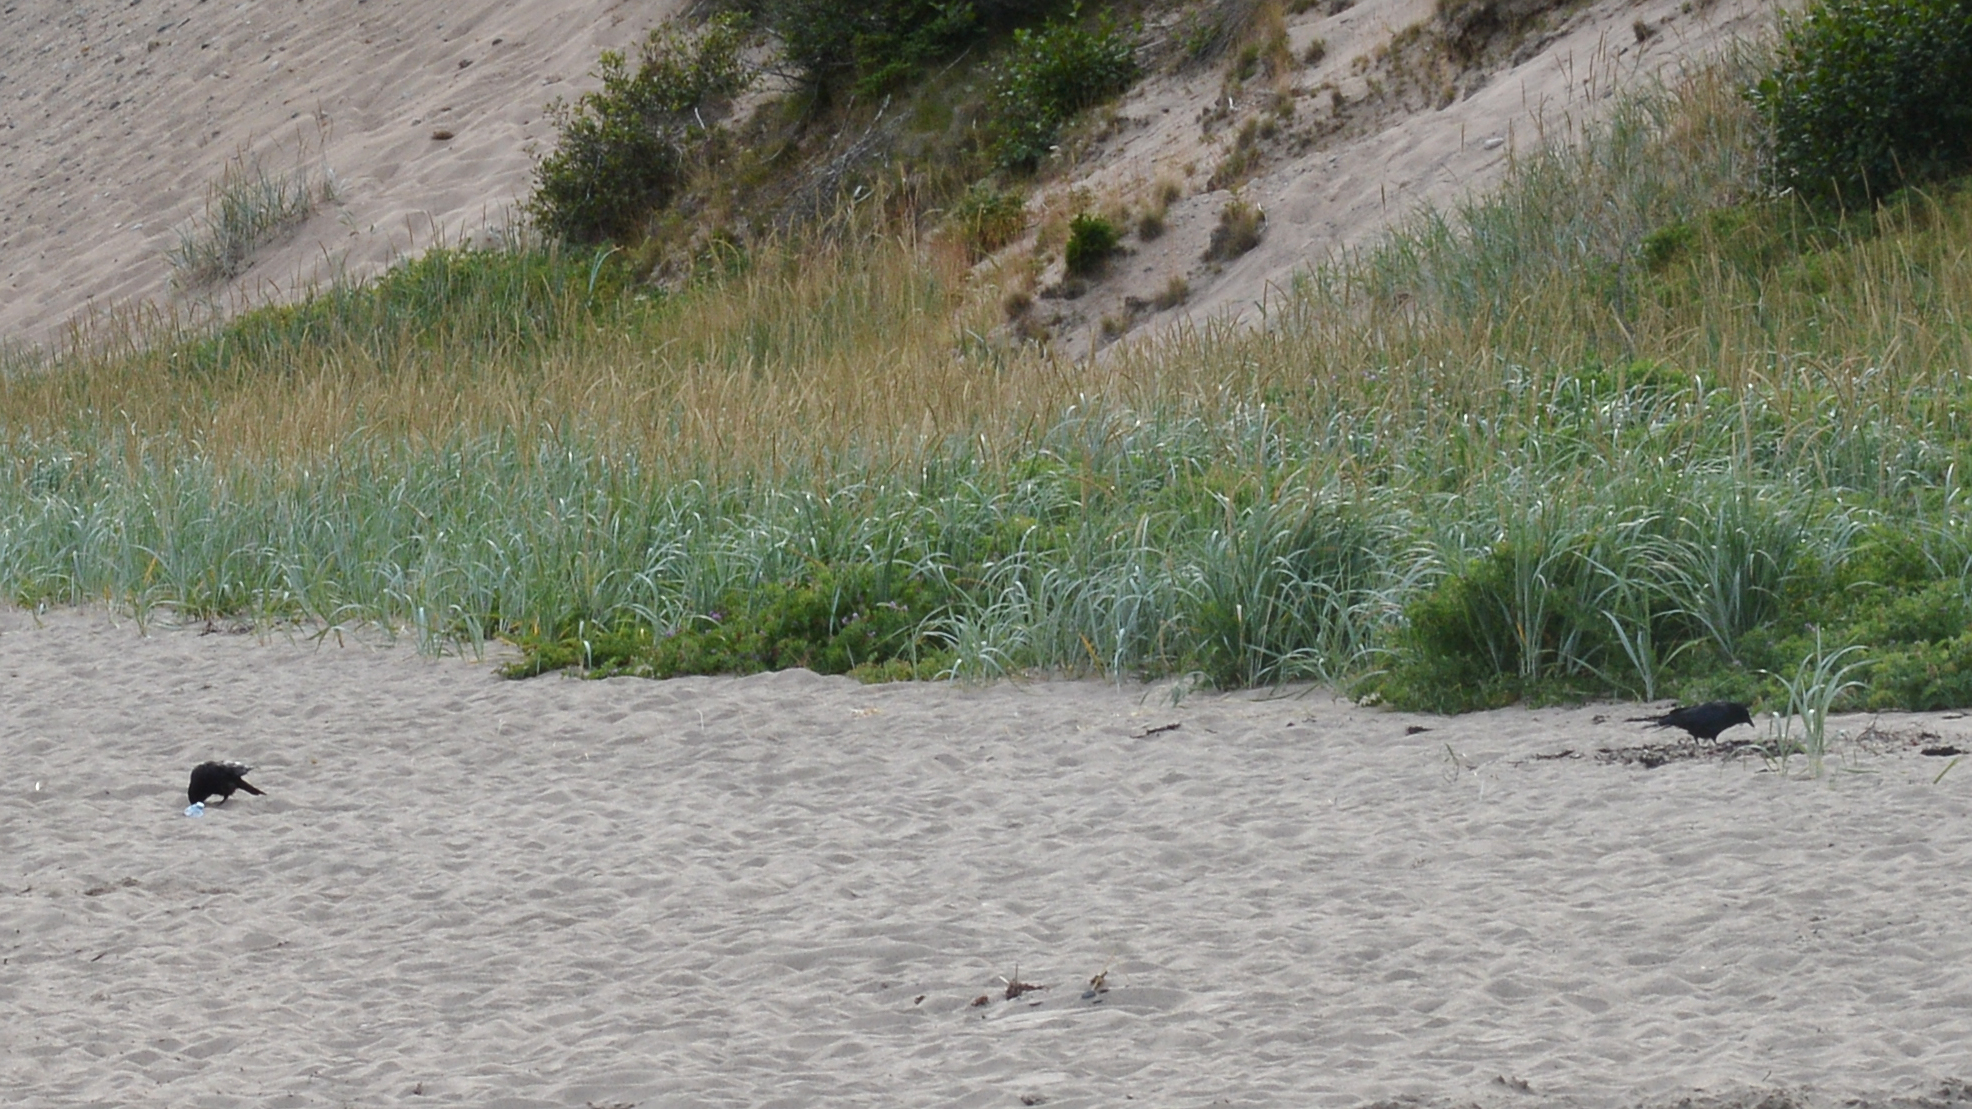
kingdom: Animalia
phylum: Chordata
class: Aves
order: Passeriformes
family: Corvidae
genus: Corvus
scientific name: Corvus brachyrhynchos
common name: American crow
